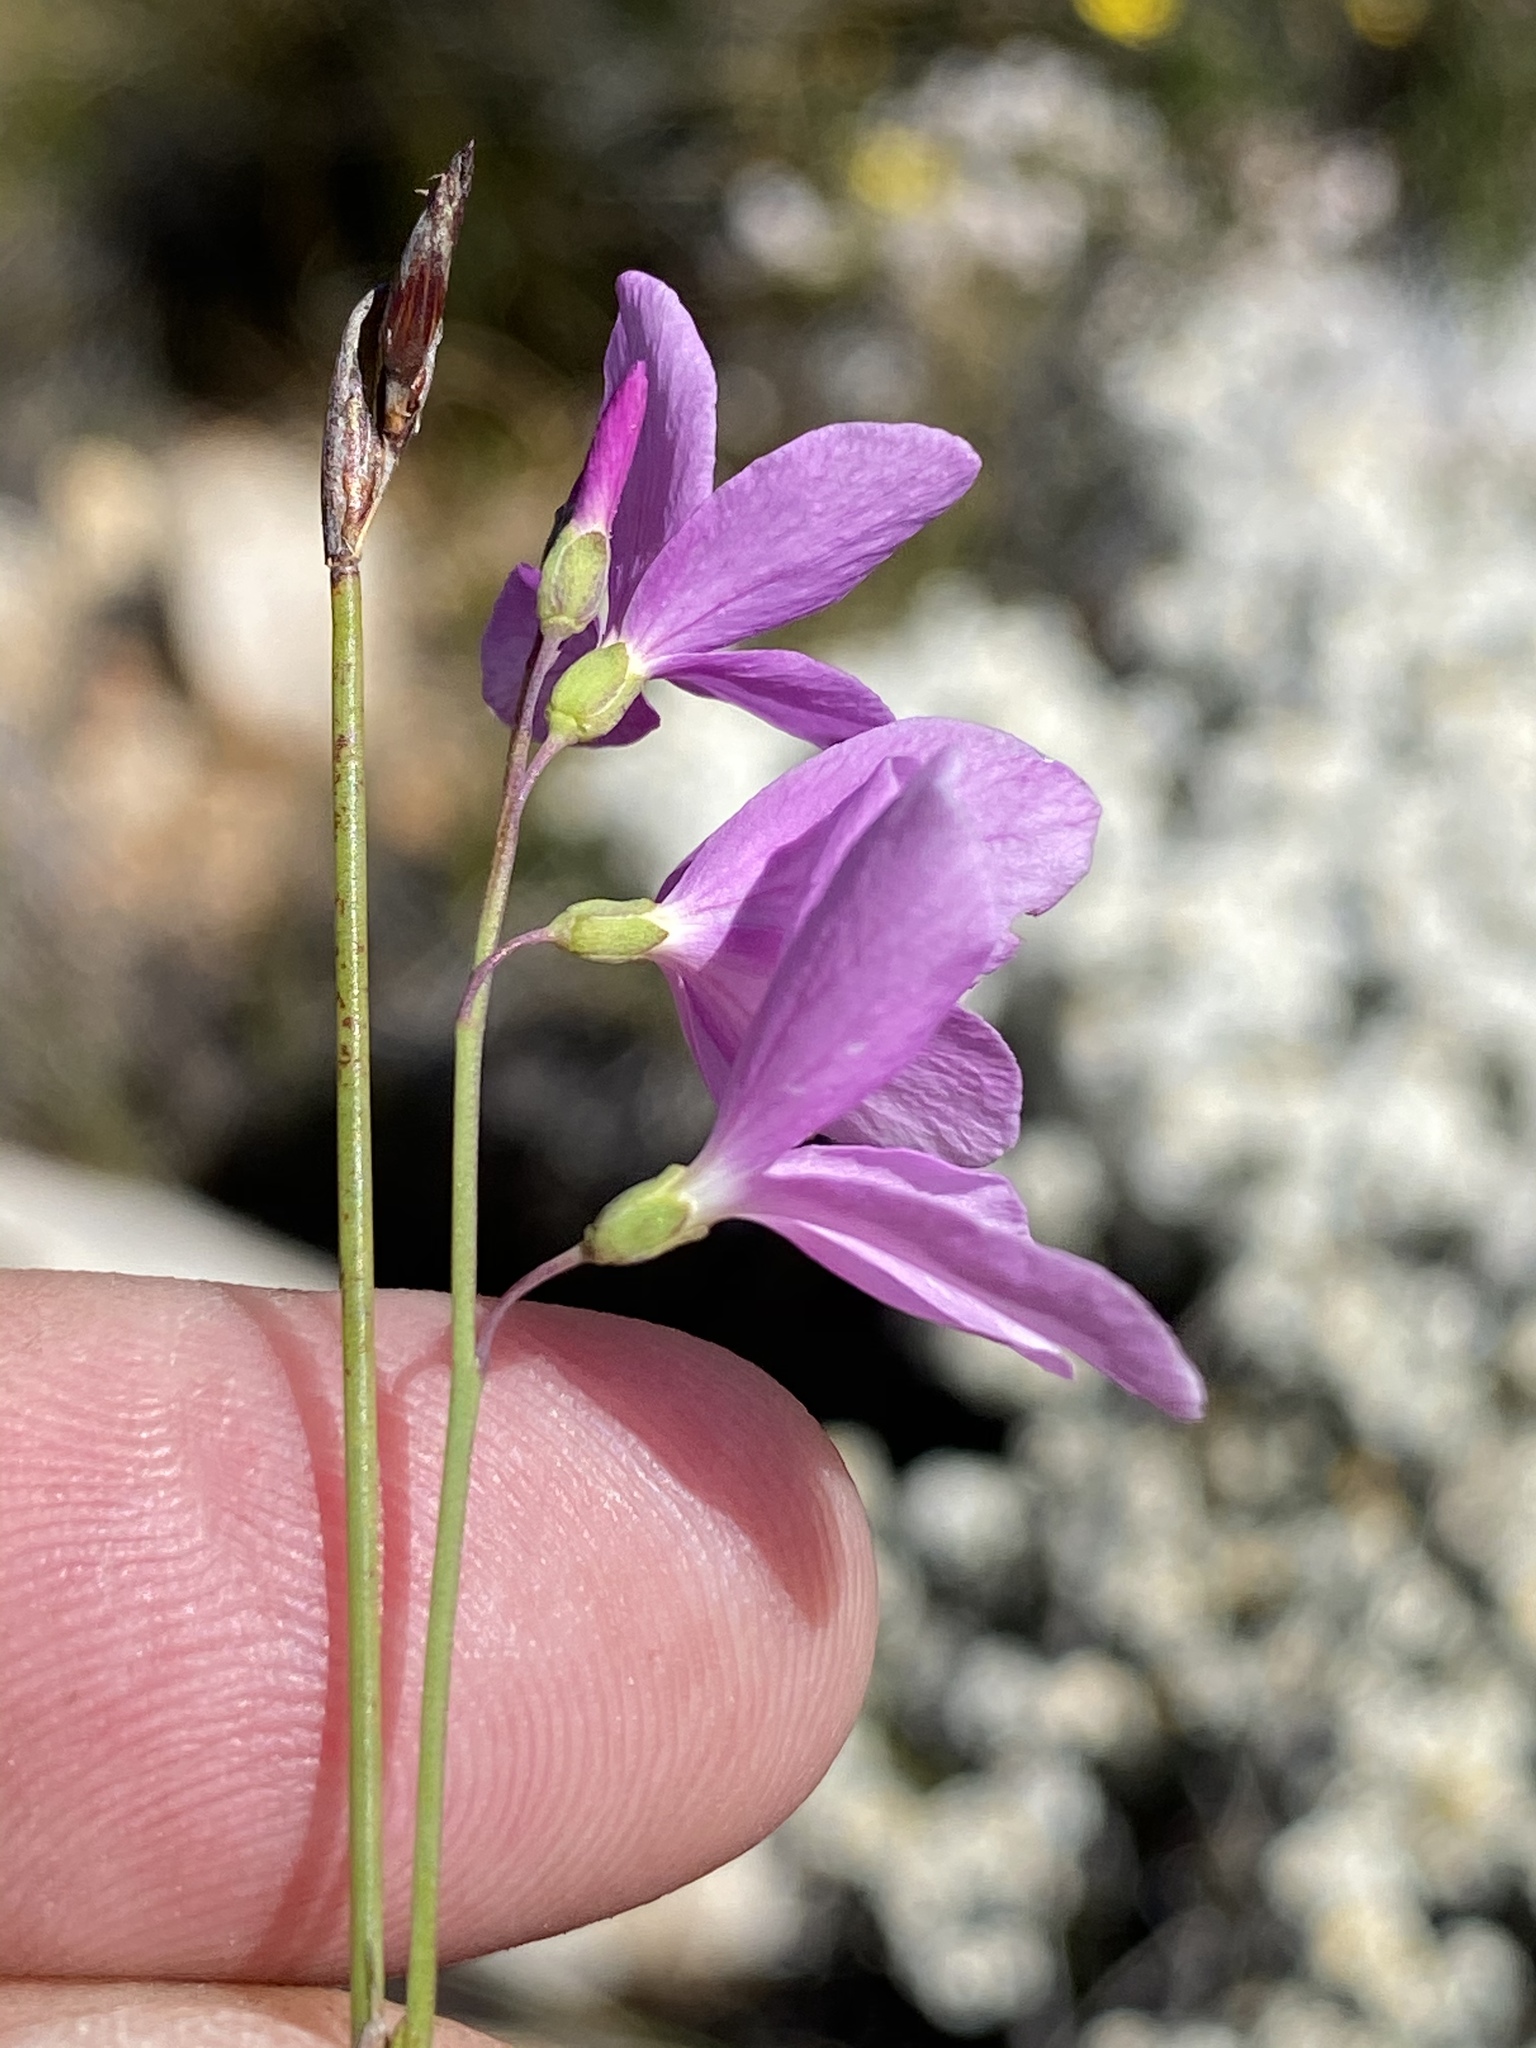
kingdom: Plantae
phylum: Tracheophyta
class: Magnoliopsida
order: Brassicales
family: Brassicaceae
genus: Heliophila
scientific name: Heliophila juncea
